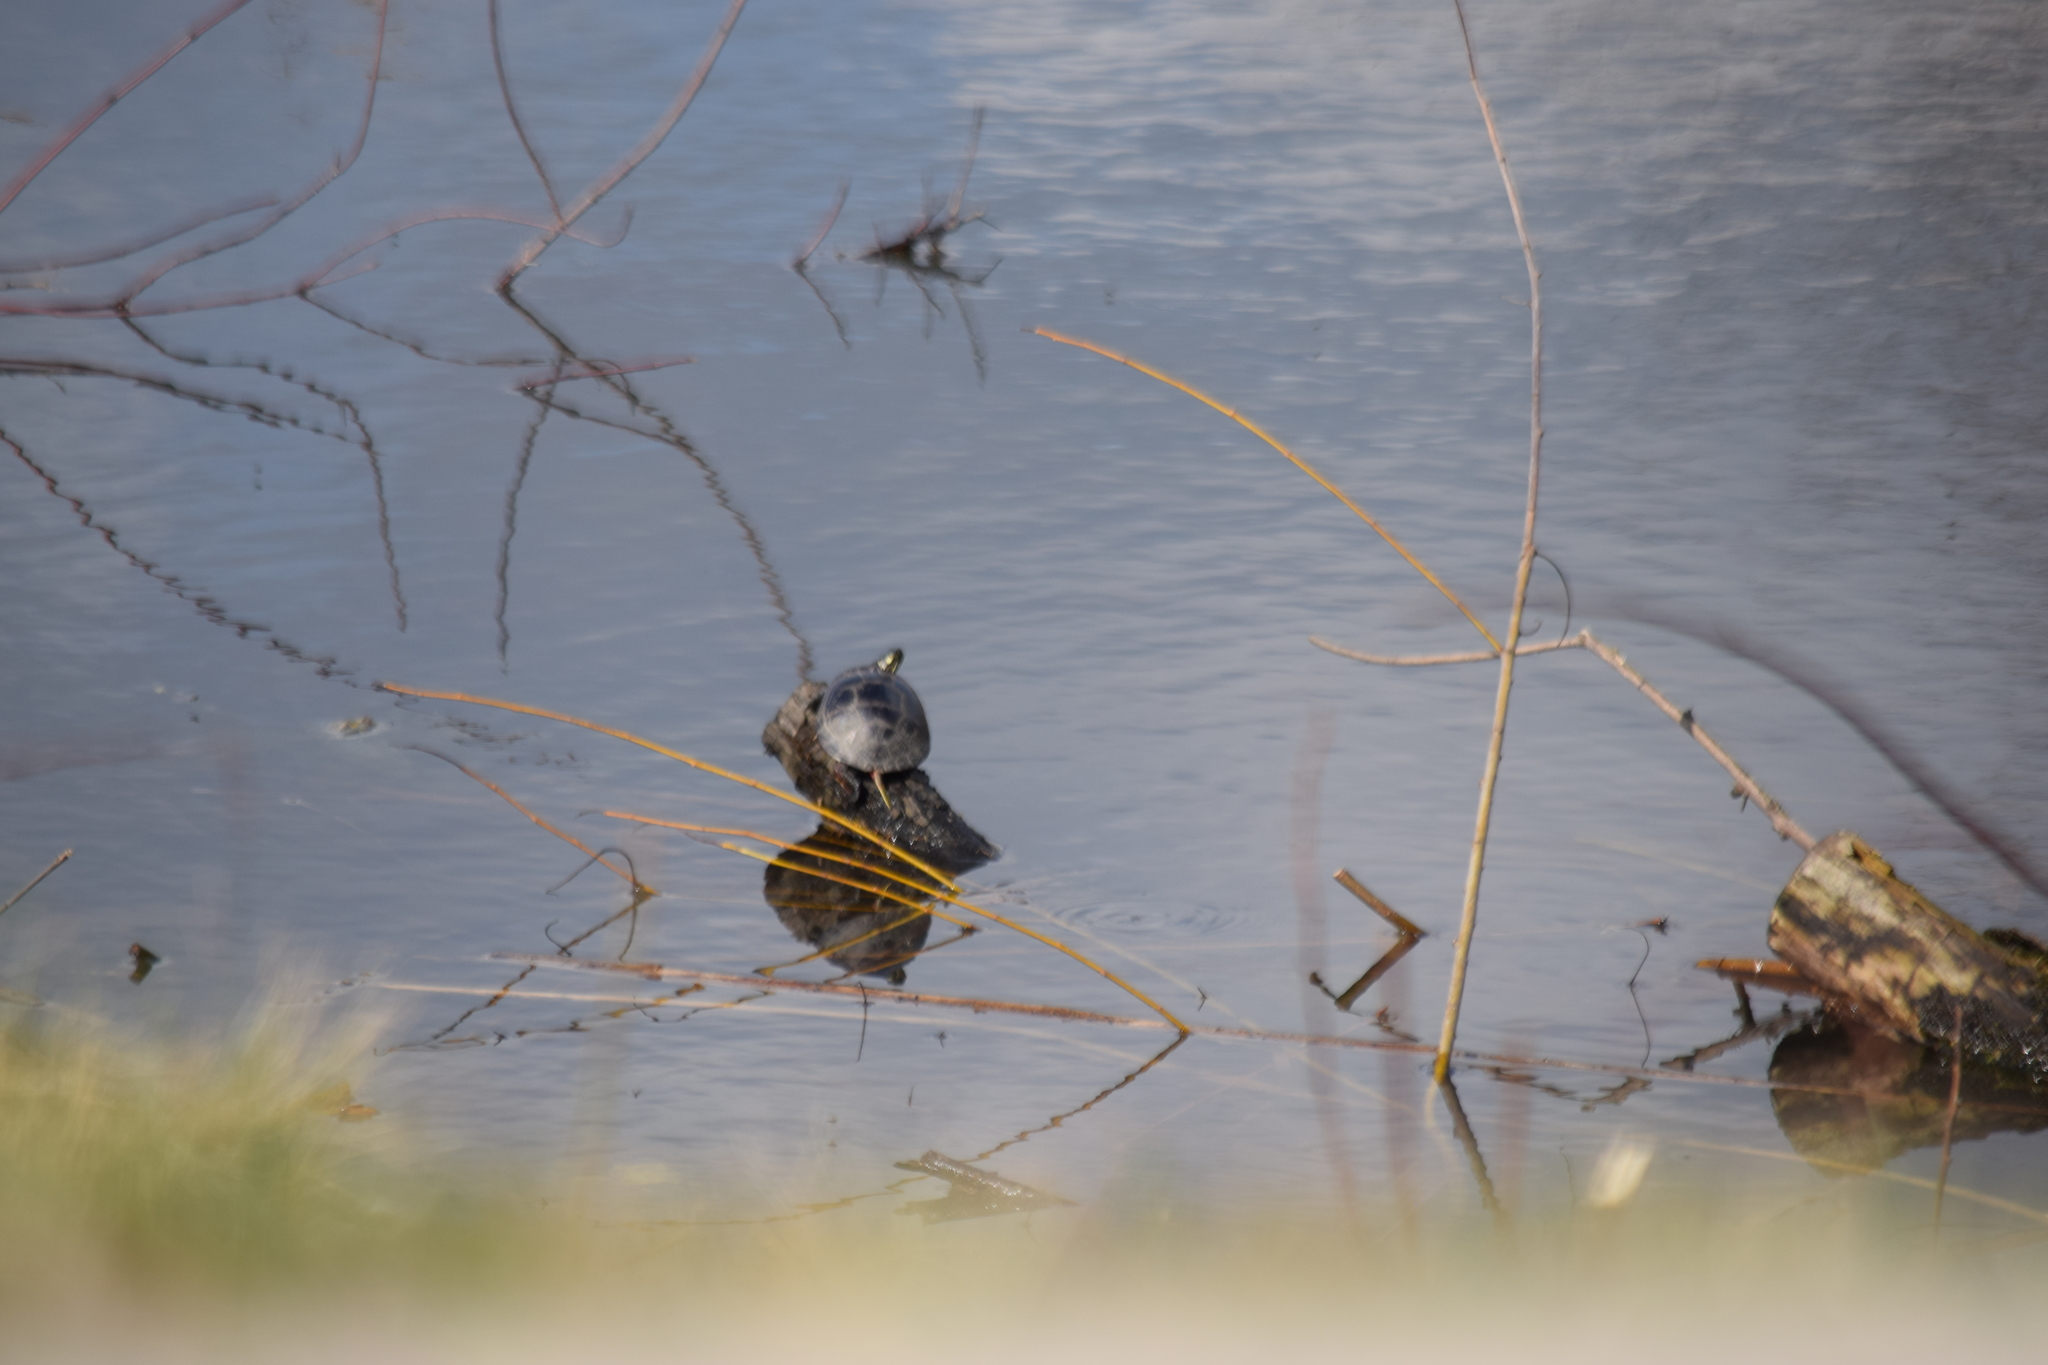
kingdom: Animalia
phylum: Chordata
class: Testudines
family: Emydidae
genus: Chrysemys
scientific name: Chrysemys picta
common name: Painted turtle
